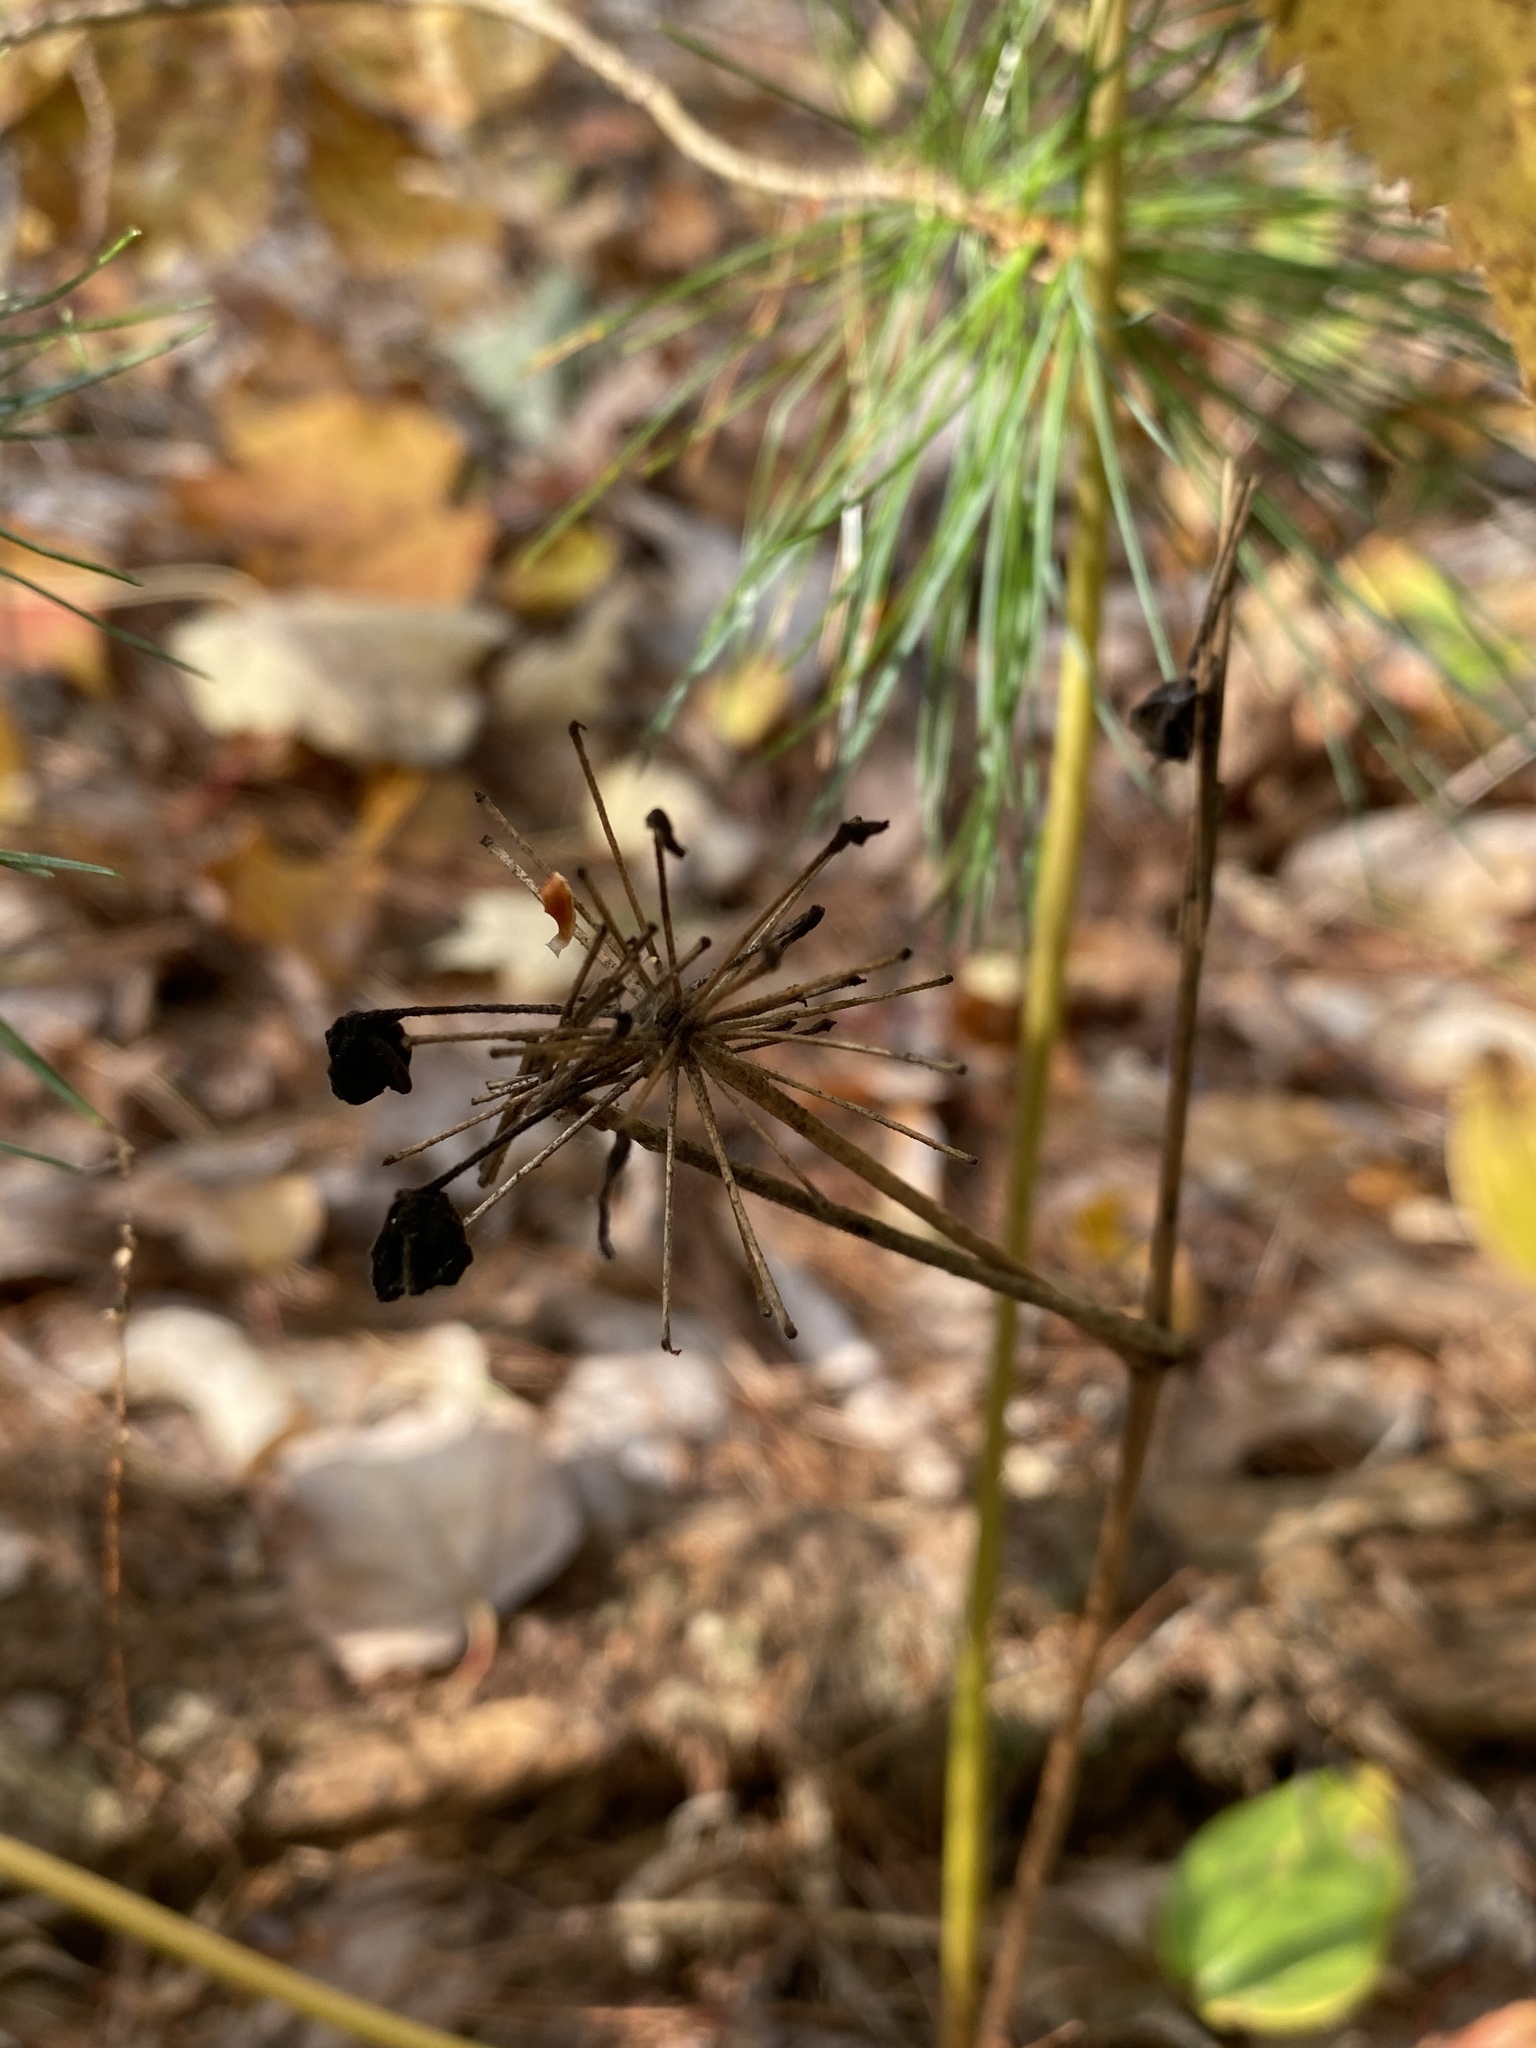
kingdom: Plantae
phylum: Tracheophyta
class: Magnoliopsida
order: Apiales
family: Araliaceae
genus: Aralia
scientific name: Aralia nudicaulis
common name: Wild sarsaparilla
